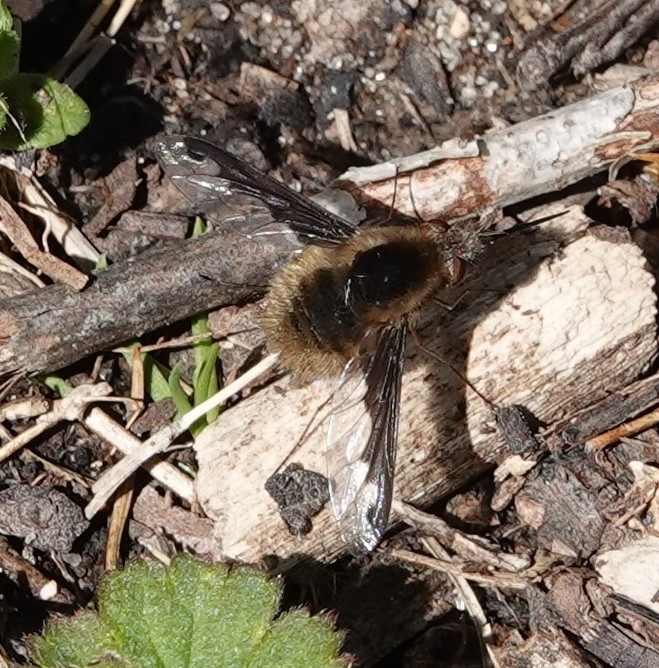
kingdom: Animalia
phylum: Arthropoda
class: Insecta
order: Diptera
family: Bombyliidae
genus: Bombylius
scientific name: Bombylius major
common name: Bee fly
